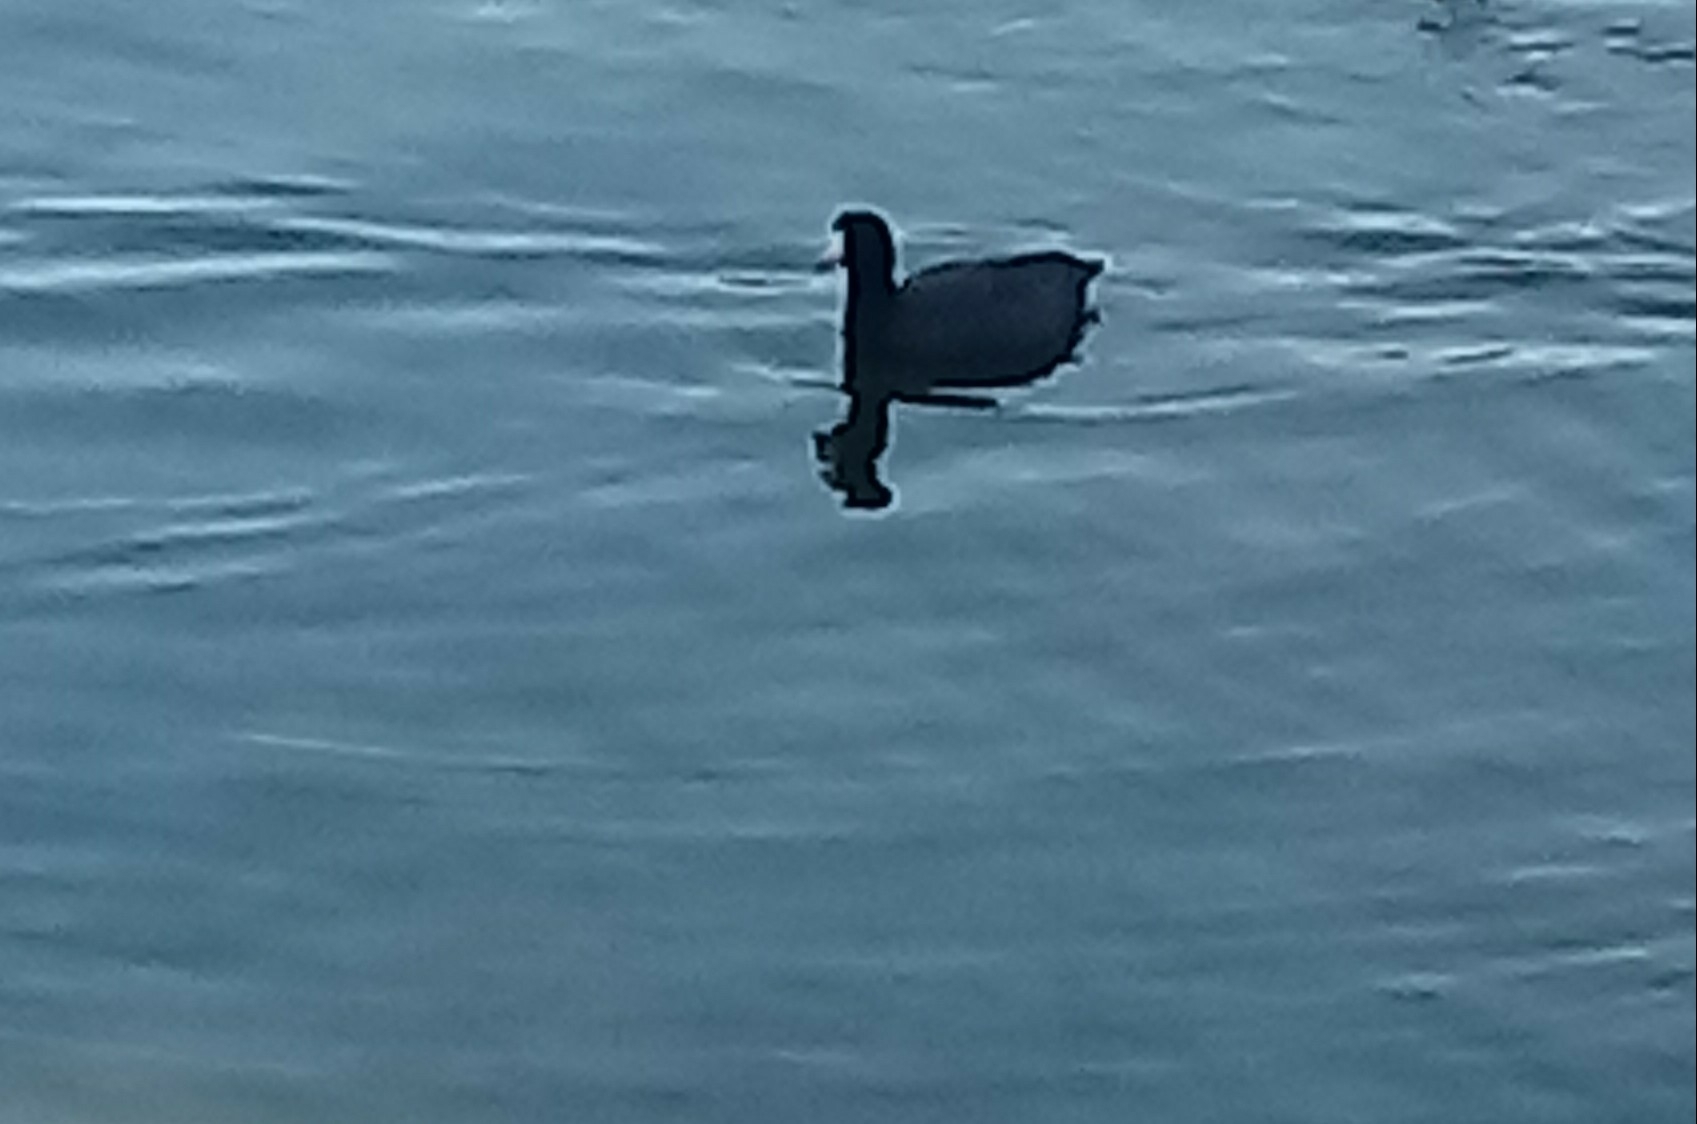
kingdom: Animalia
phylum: Chordata
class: Aves
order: Gruiformes
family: Rallidae
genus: Fulica
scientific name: Fulica americana
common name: American coot
